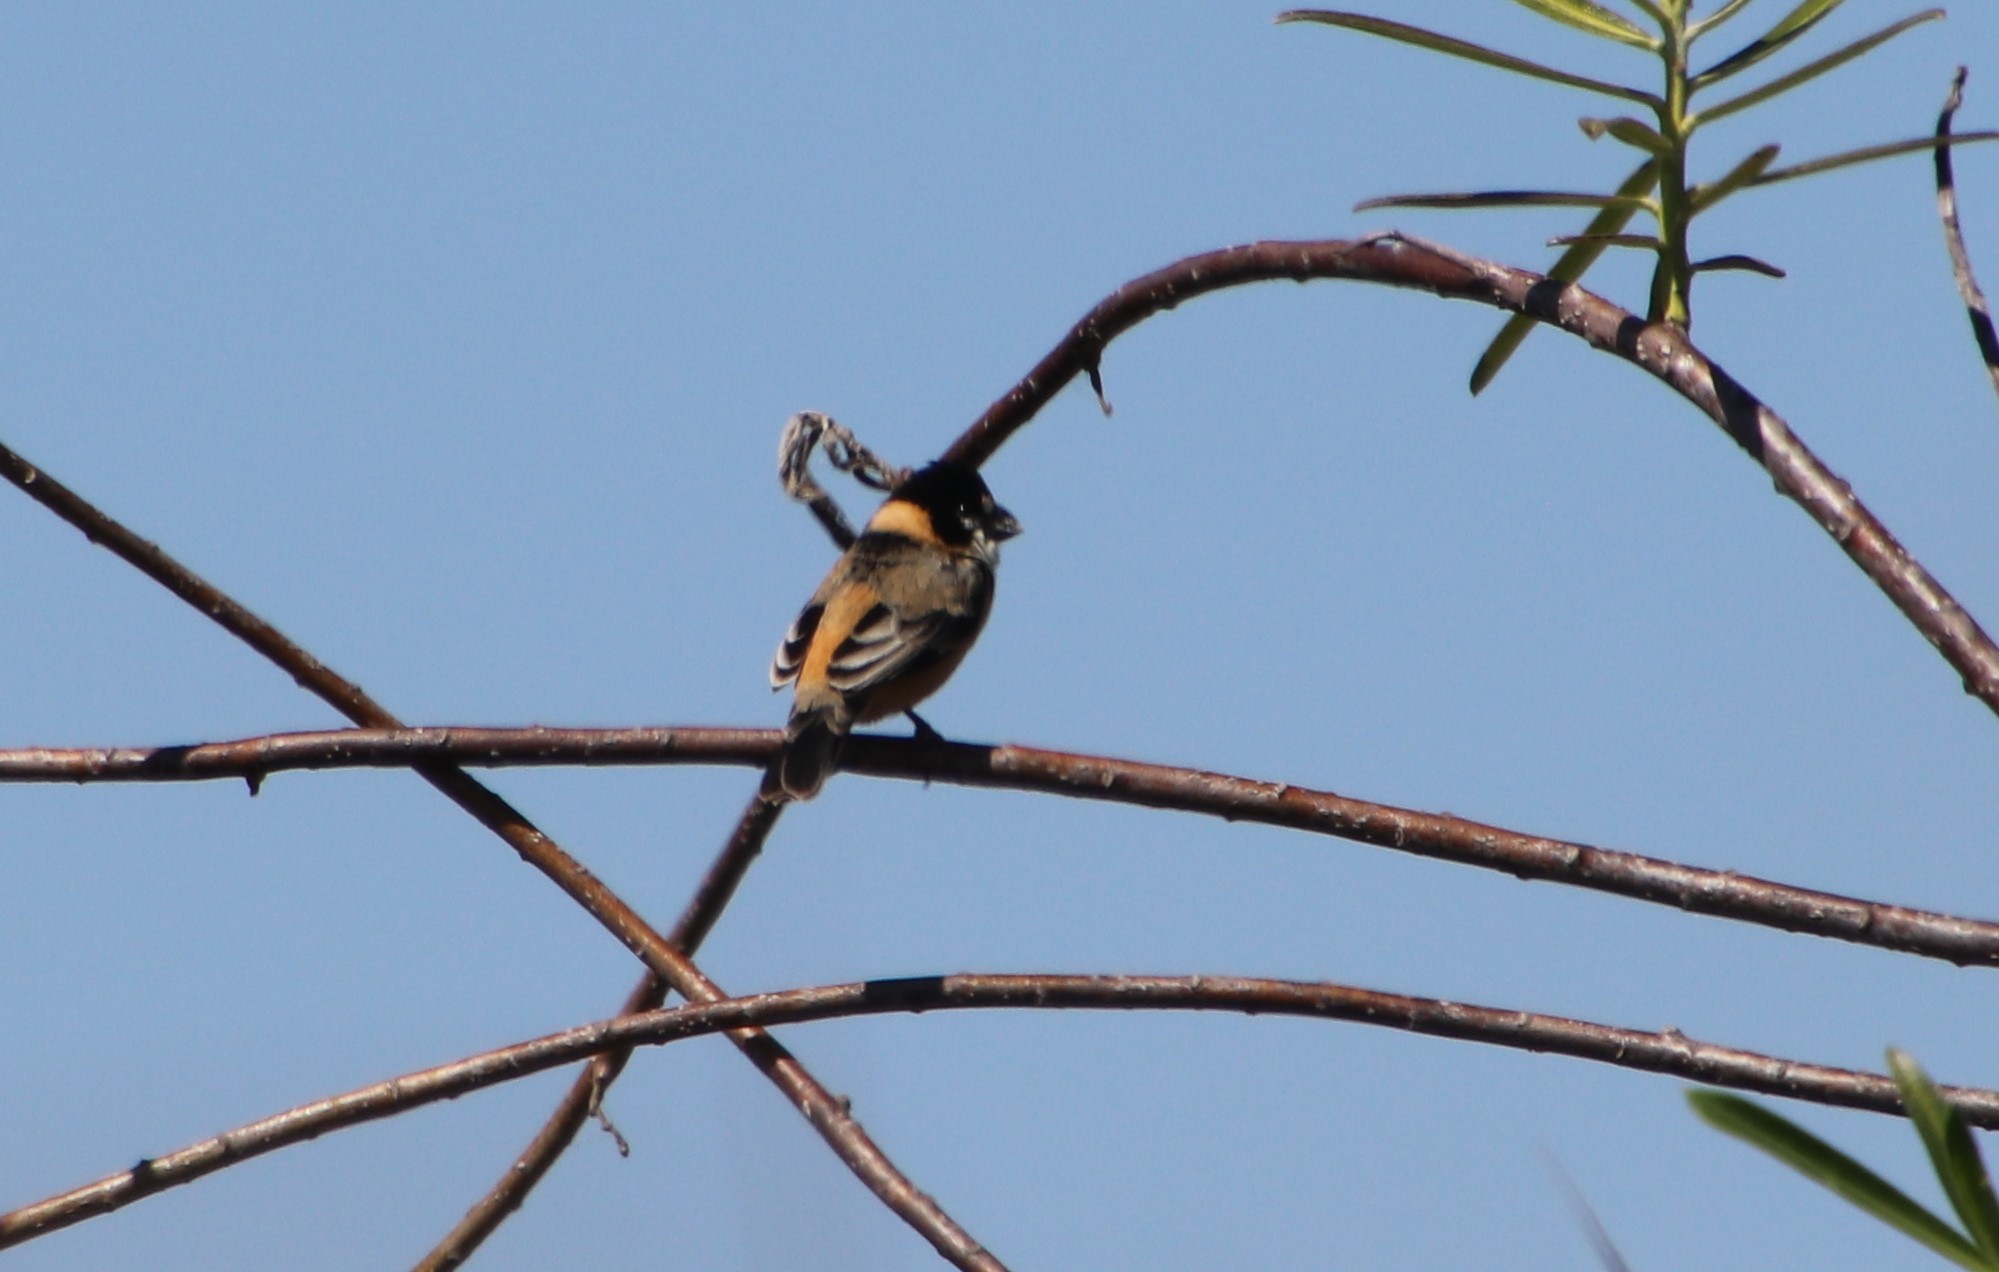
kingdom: Animalia
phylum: Chordata
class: Aves
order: Passeriformes
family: Thraupidae
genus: Sporophila
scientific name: Sporophila collaris
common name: Rusty-collared seedeater
